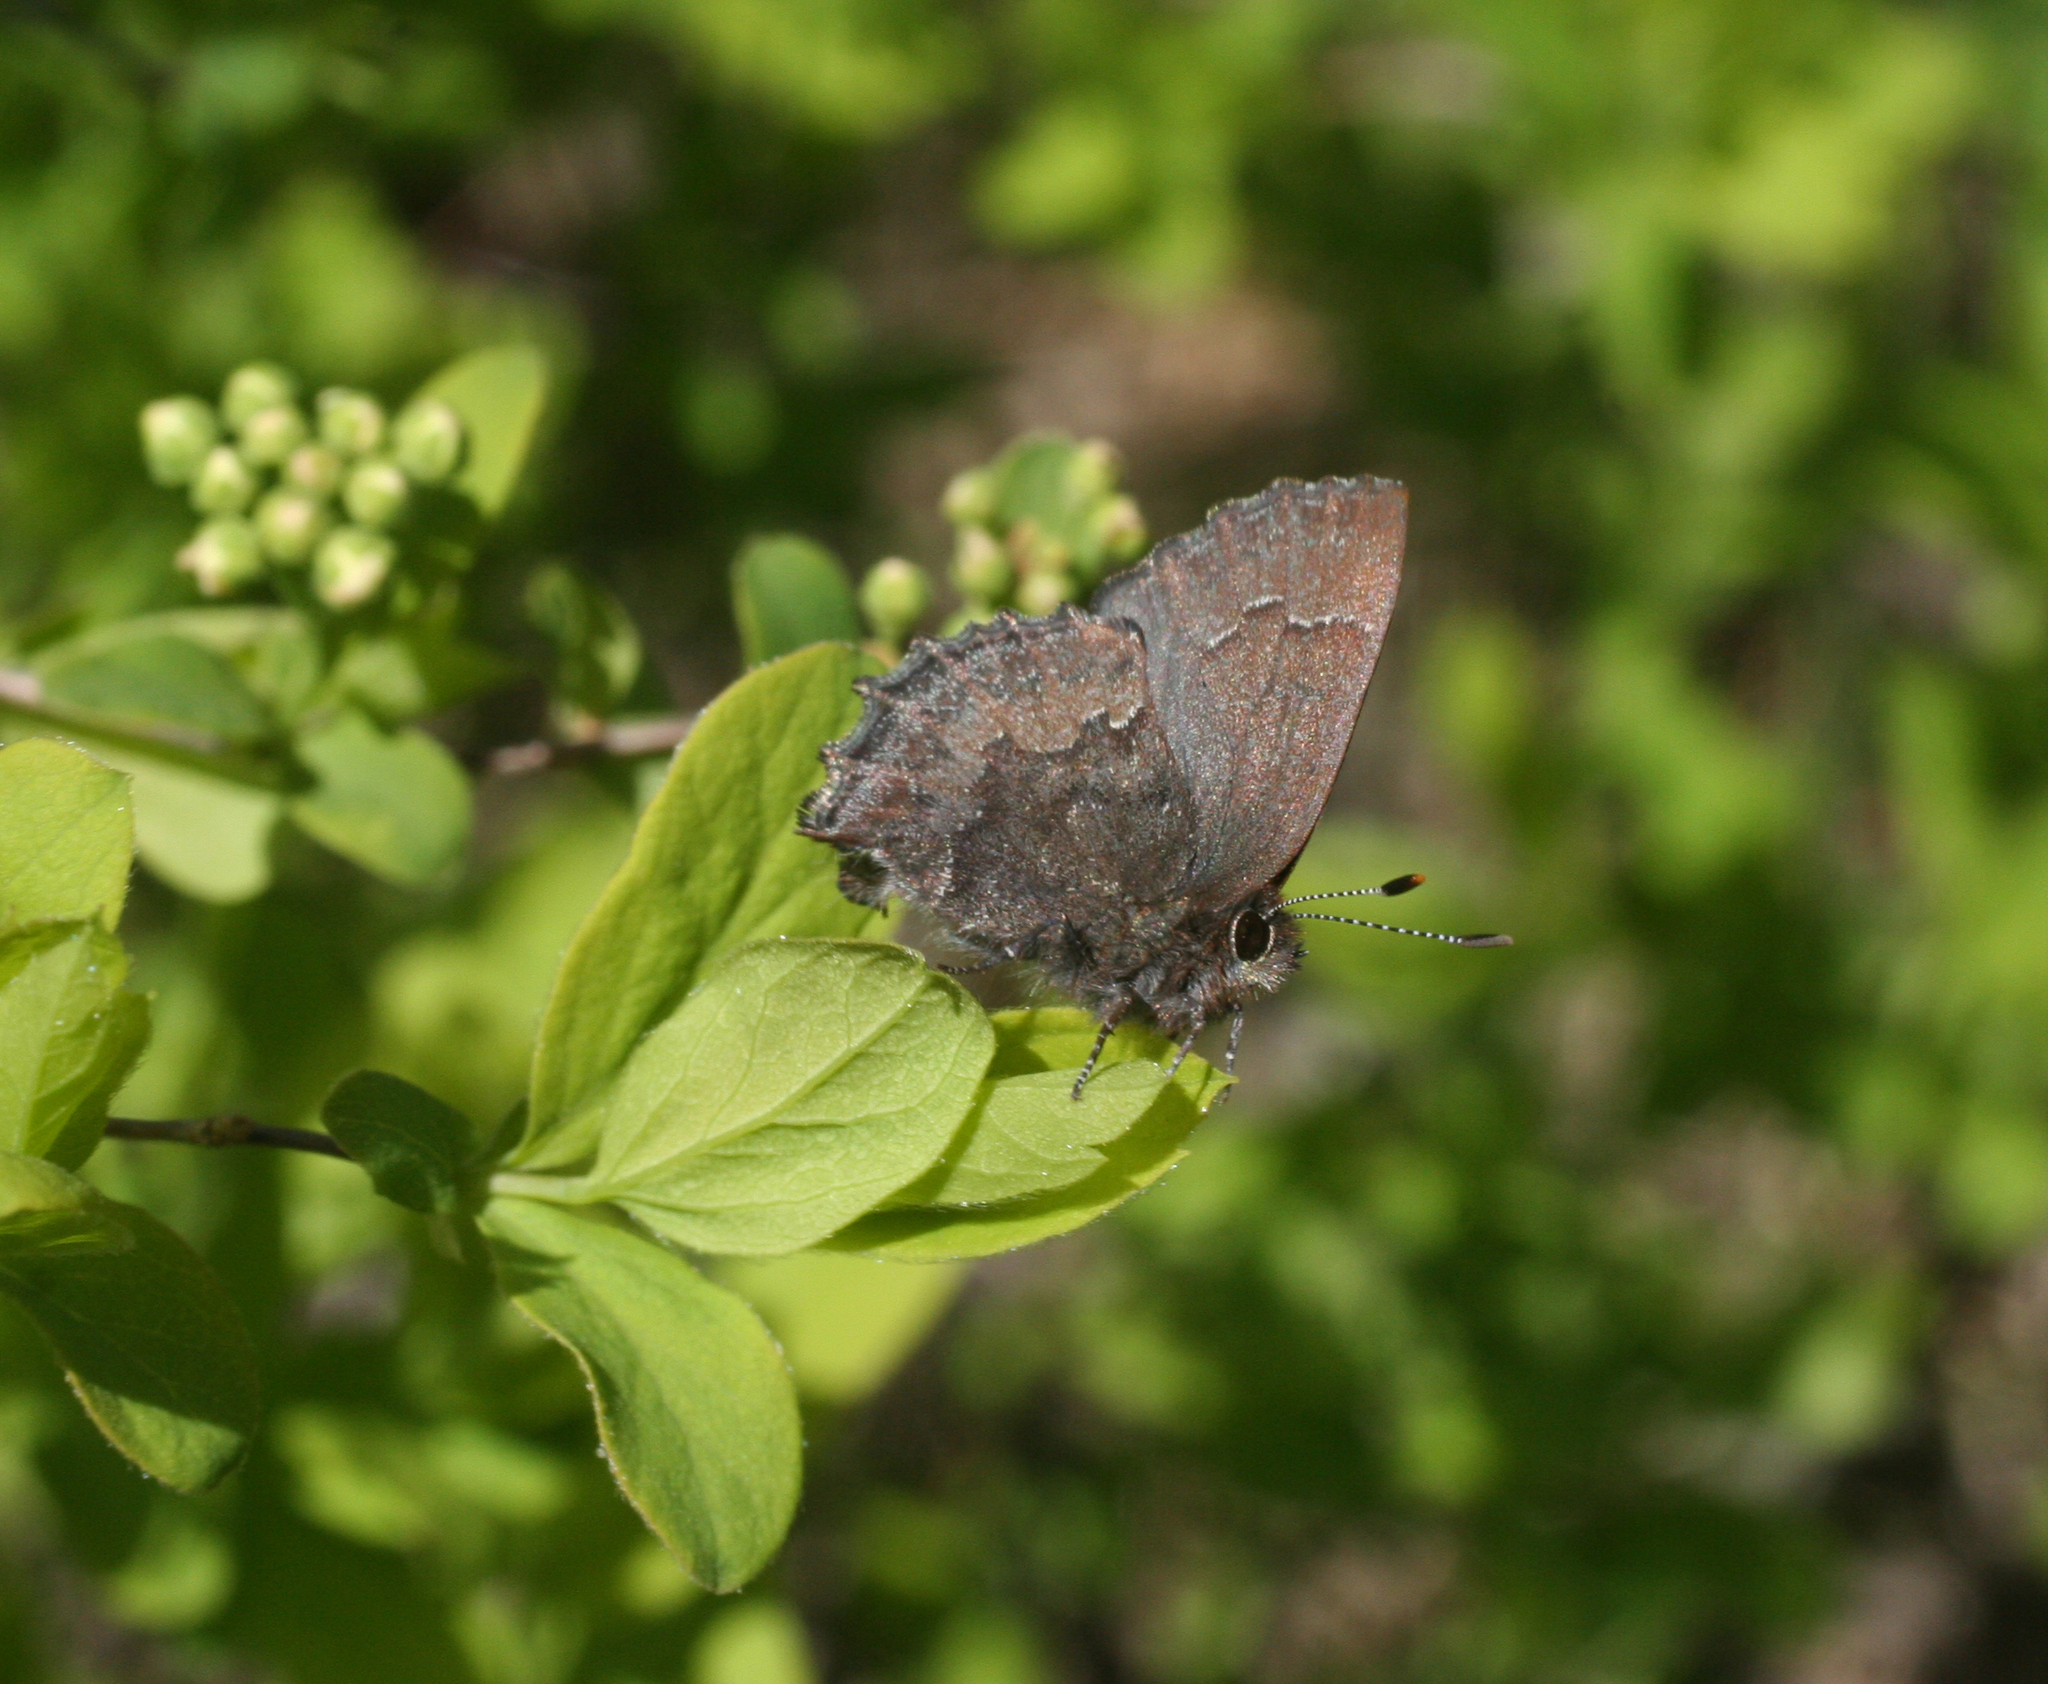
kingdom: Animalia
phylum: Arthropoda
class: Insecta
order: Lepidoptera
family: Lycaenidae
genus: Ginzia
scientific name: Ginzia Ahlbergia frivaldszkyi
